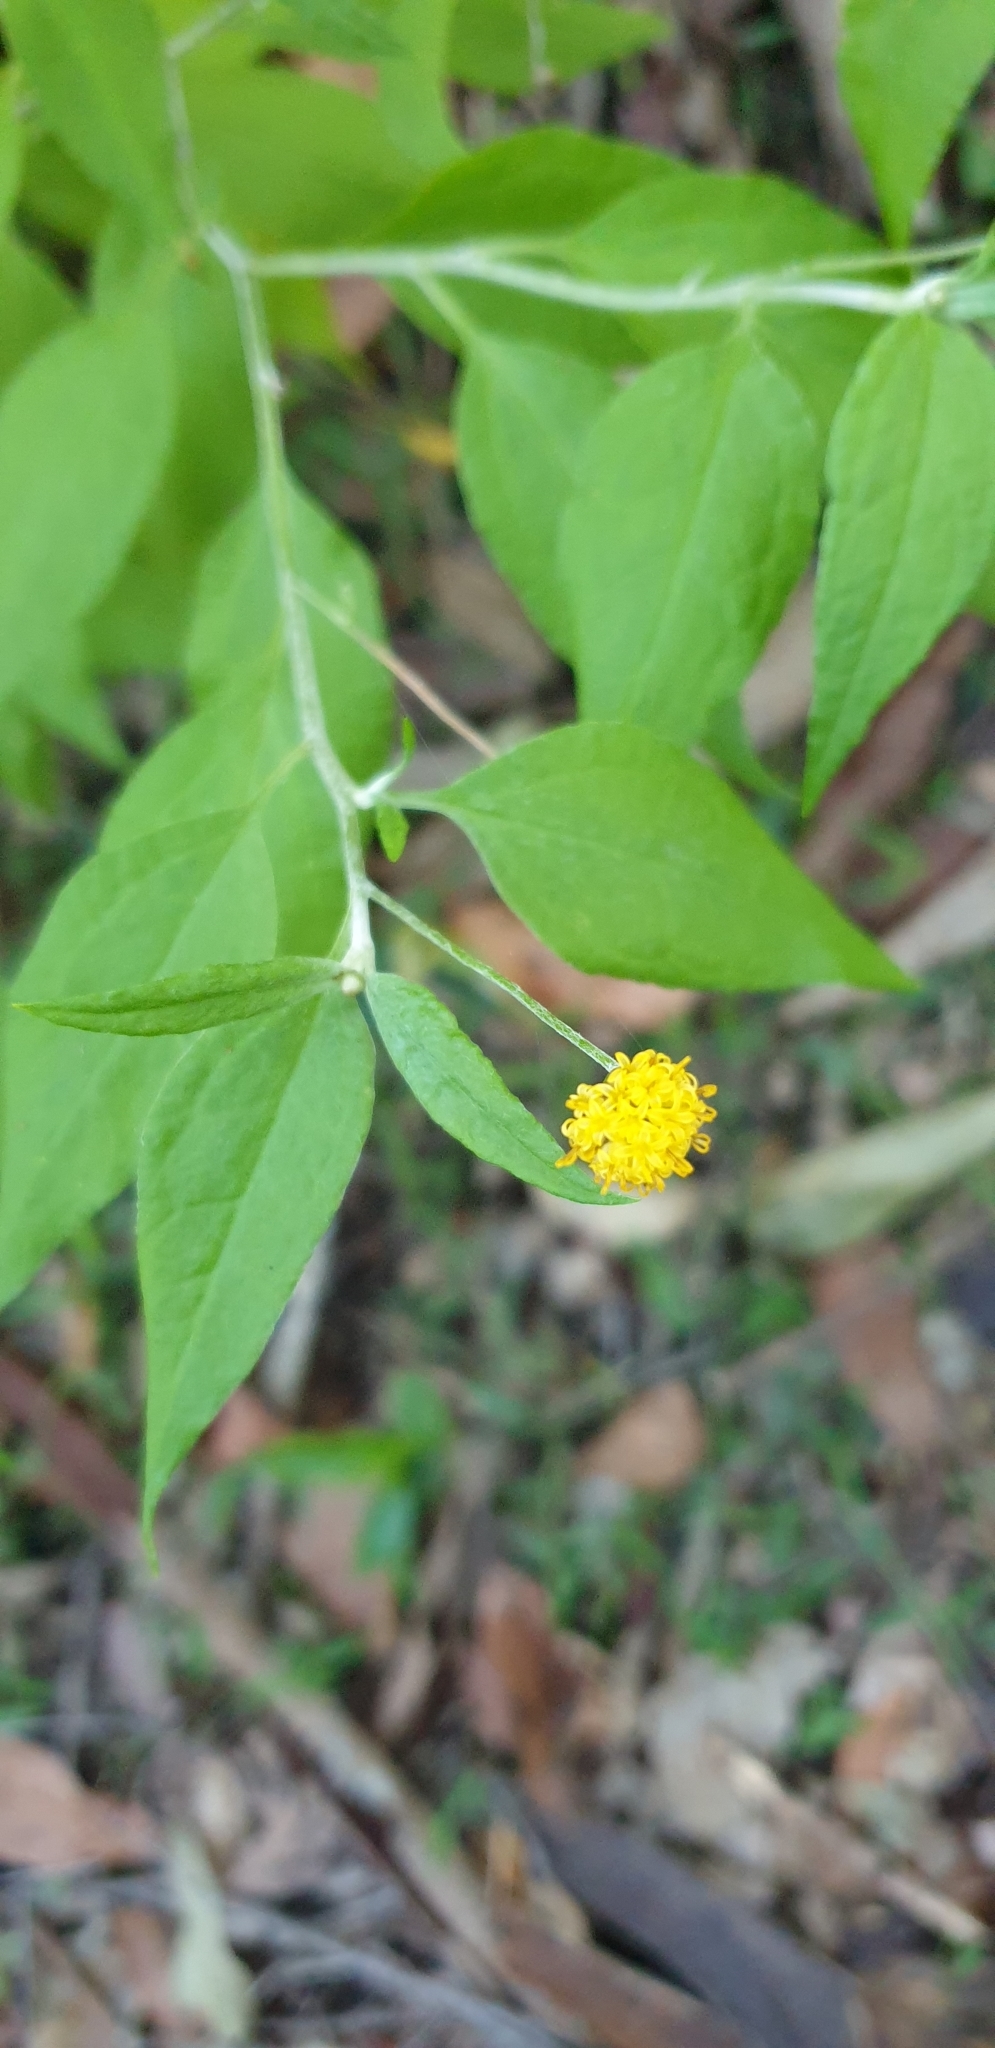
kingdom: Plantae
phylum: Tracheophyta
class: Magnoliopsida
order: Asterales
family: Asteraceae
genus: Acomis
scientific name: Acomis acoma
